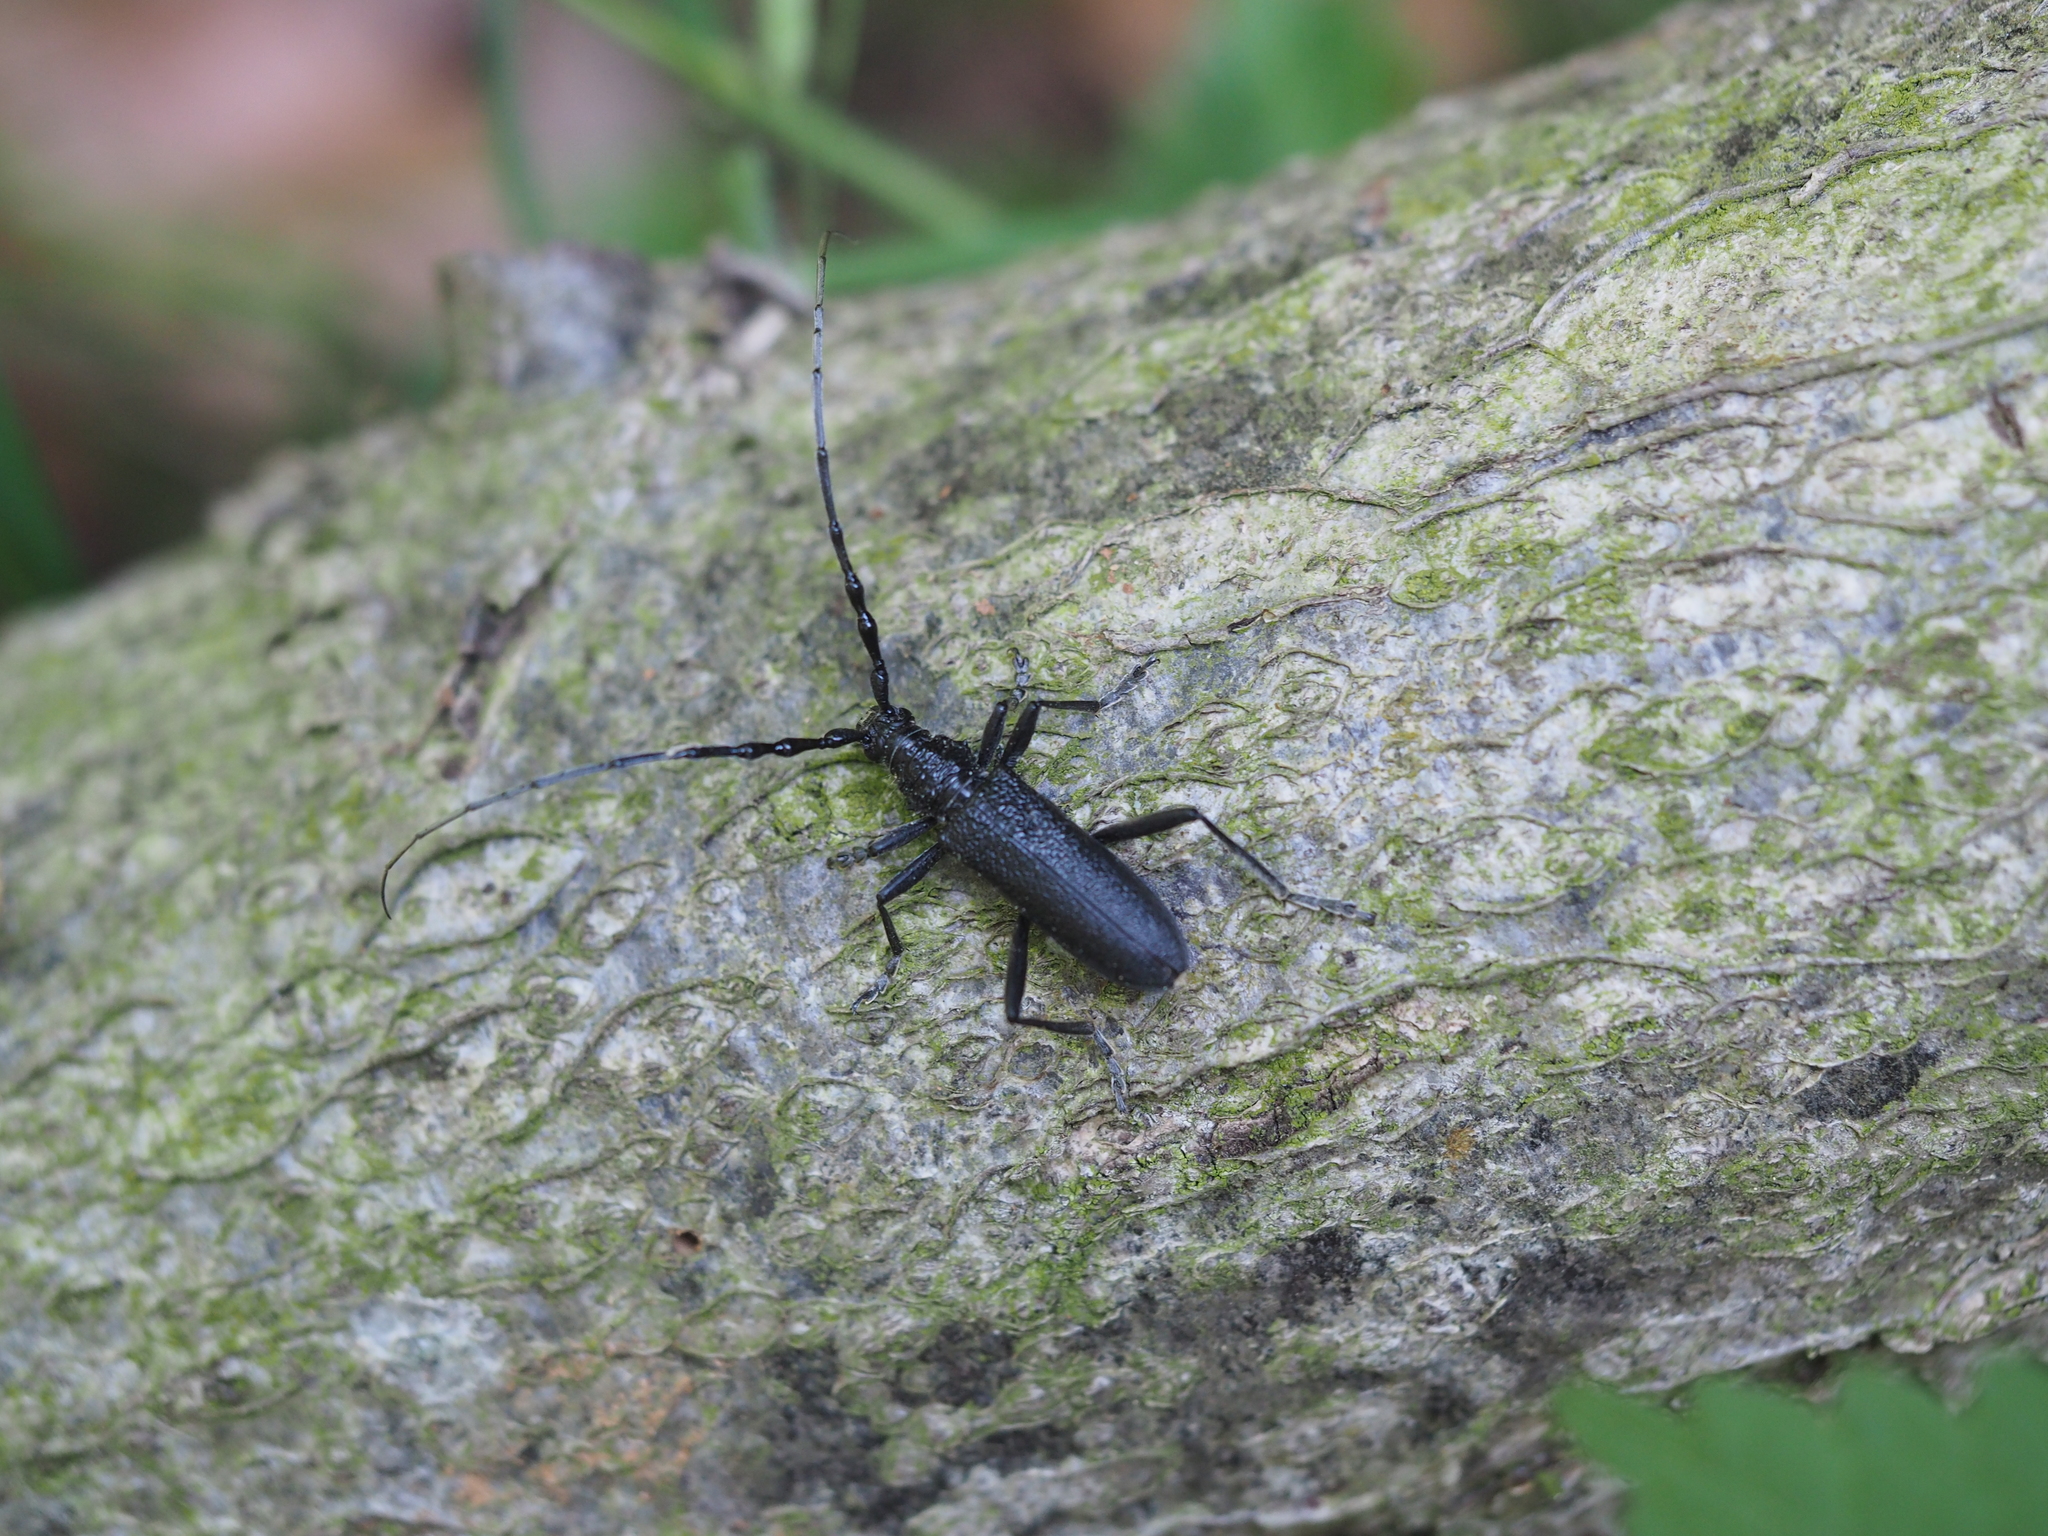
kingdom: Animalia
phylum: Arthropoda
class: Insecta
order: Coleoptera
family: Cerambycidae
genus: Cerambyx
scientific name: Cerambyx scopolii
